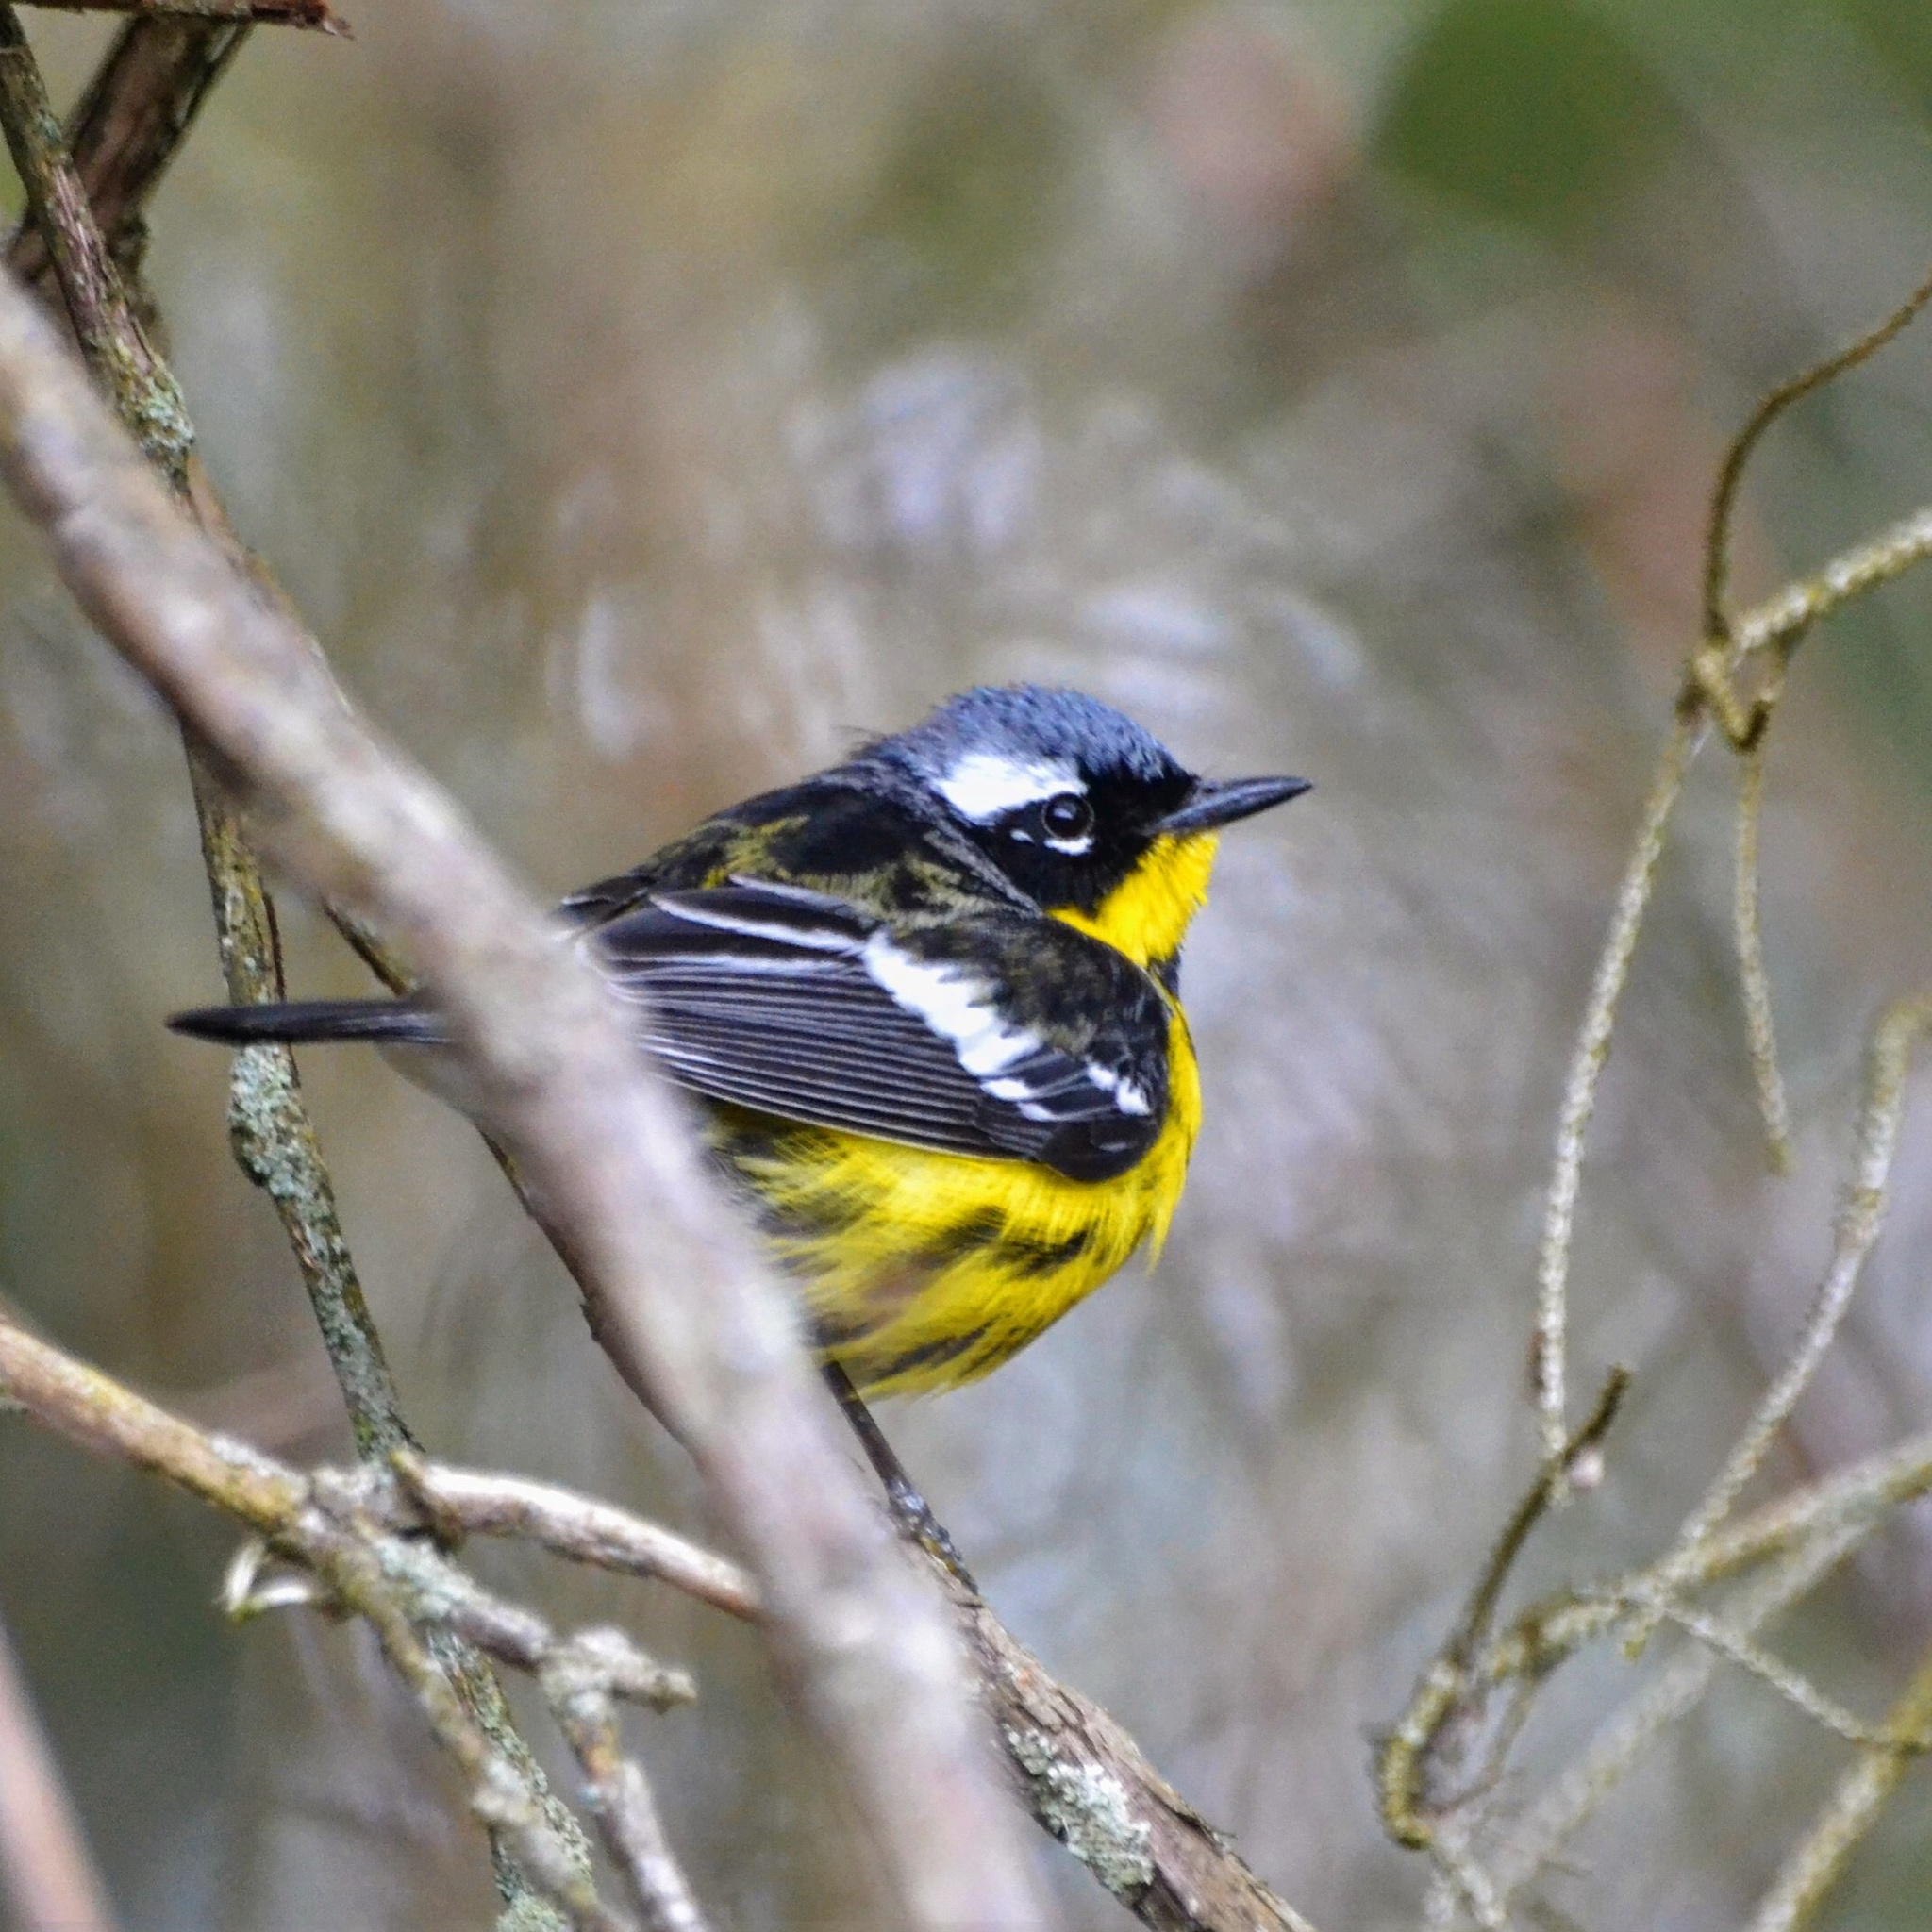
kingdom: Animalia
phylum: Chordata
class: Aves
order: Passeriformes
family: Parulidae
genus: Setophaga
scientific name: Setophaga magnolia
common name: Magnolia warbler
